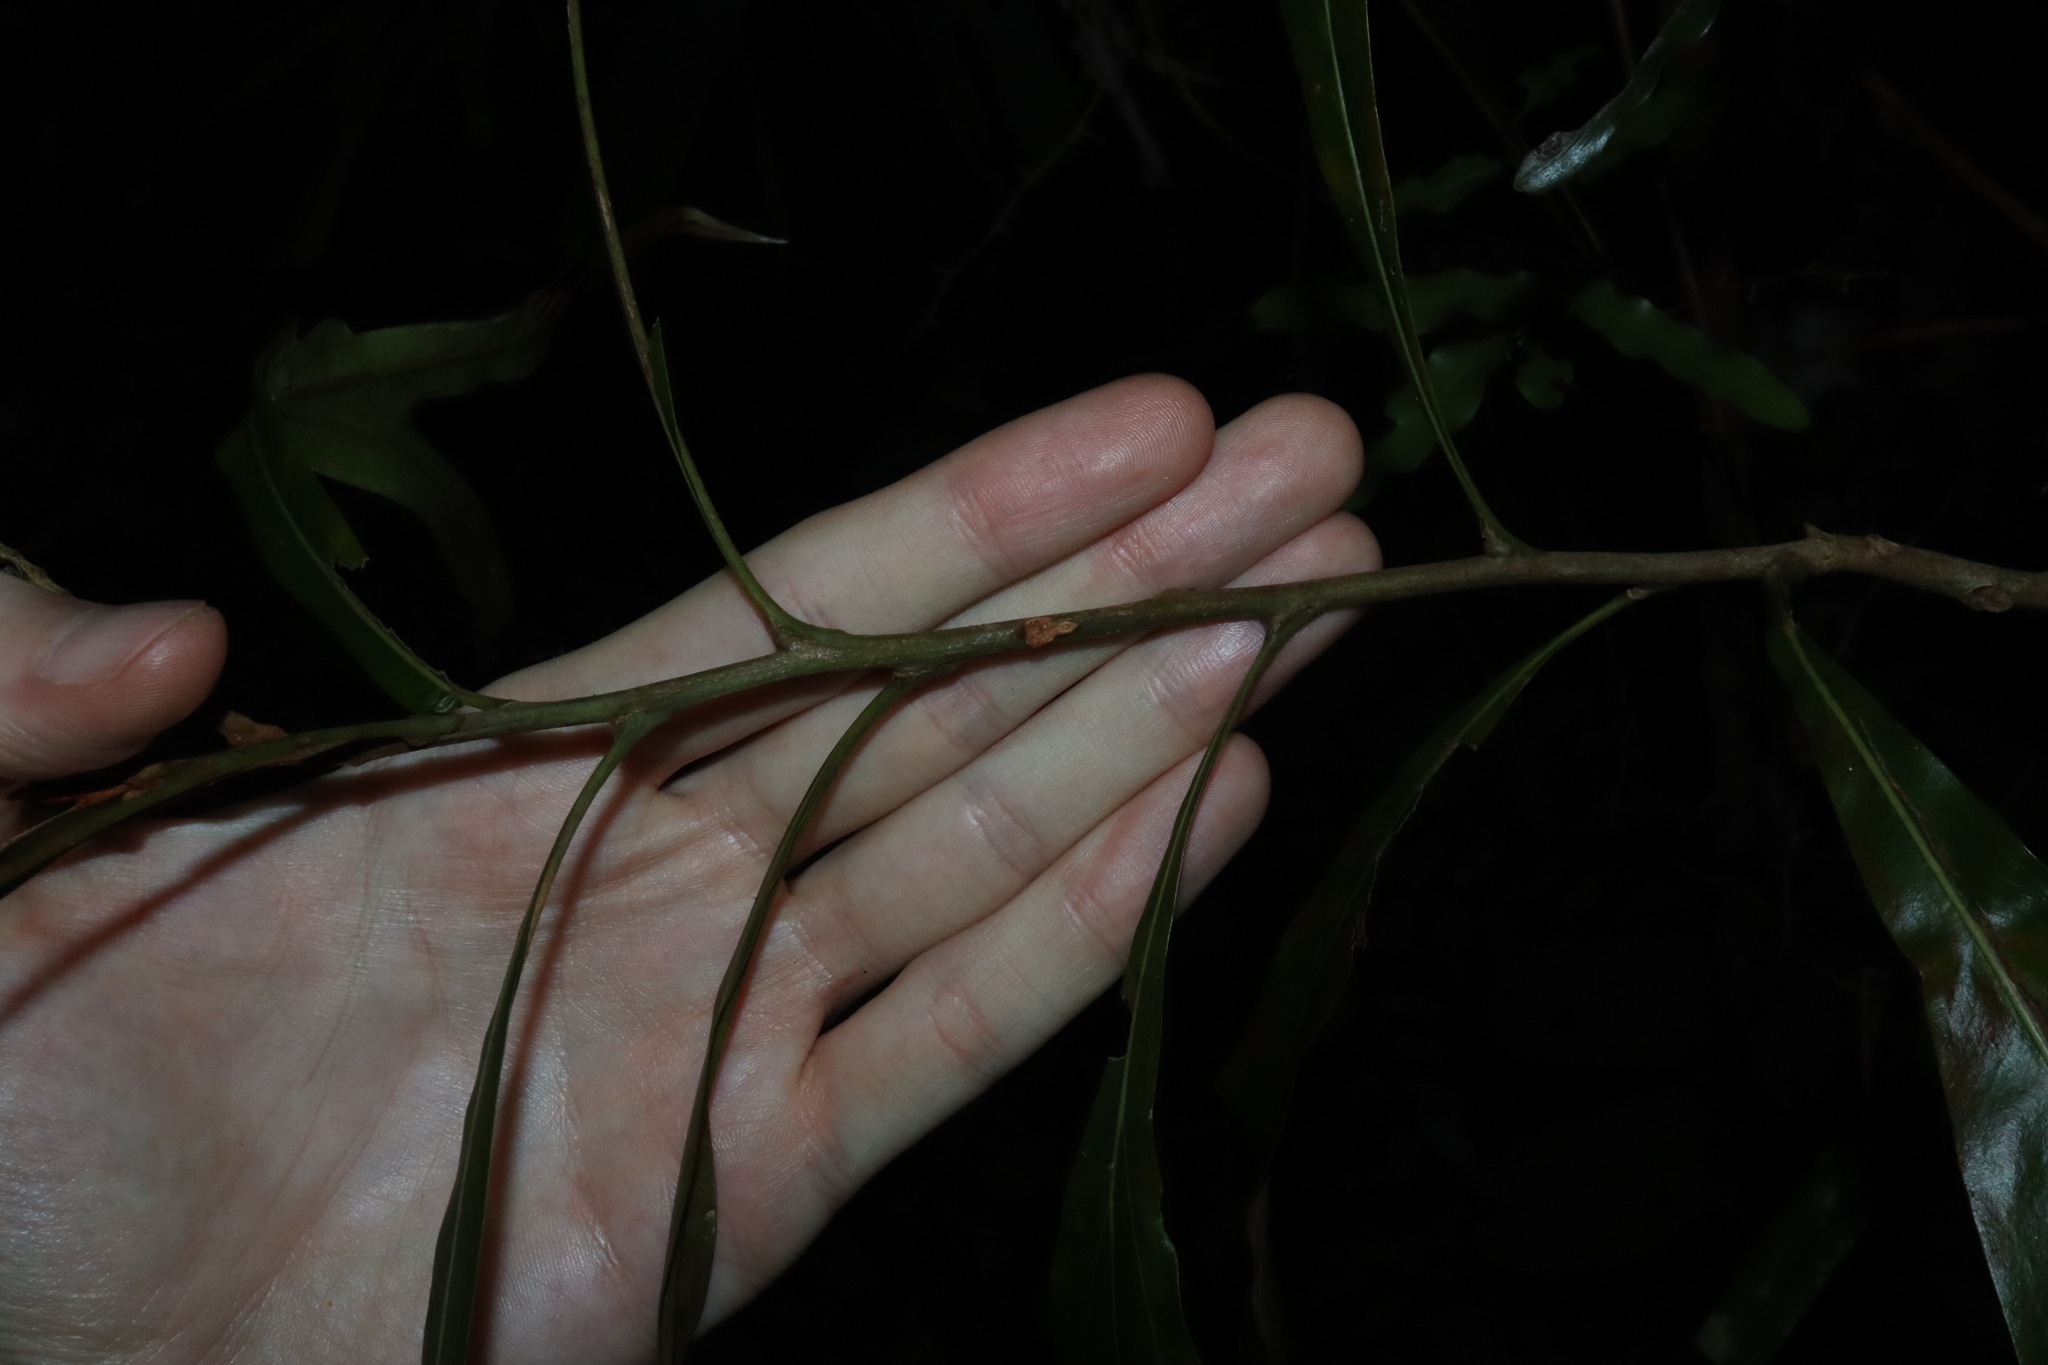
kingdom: Plantae
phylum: Tracheophyta
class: Magnoliopsida
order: Proteales
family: Proteaceae
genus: Grevillea
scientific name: Grevillea hilliana
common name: White silky-oak
